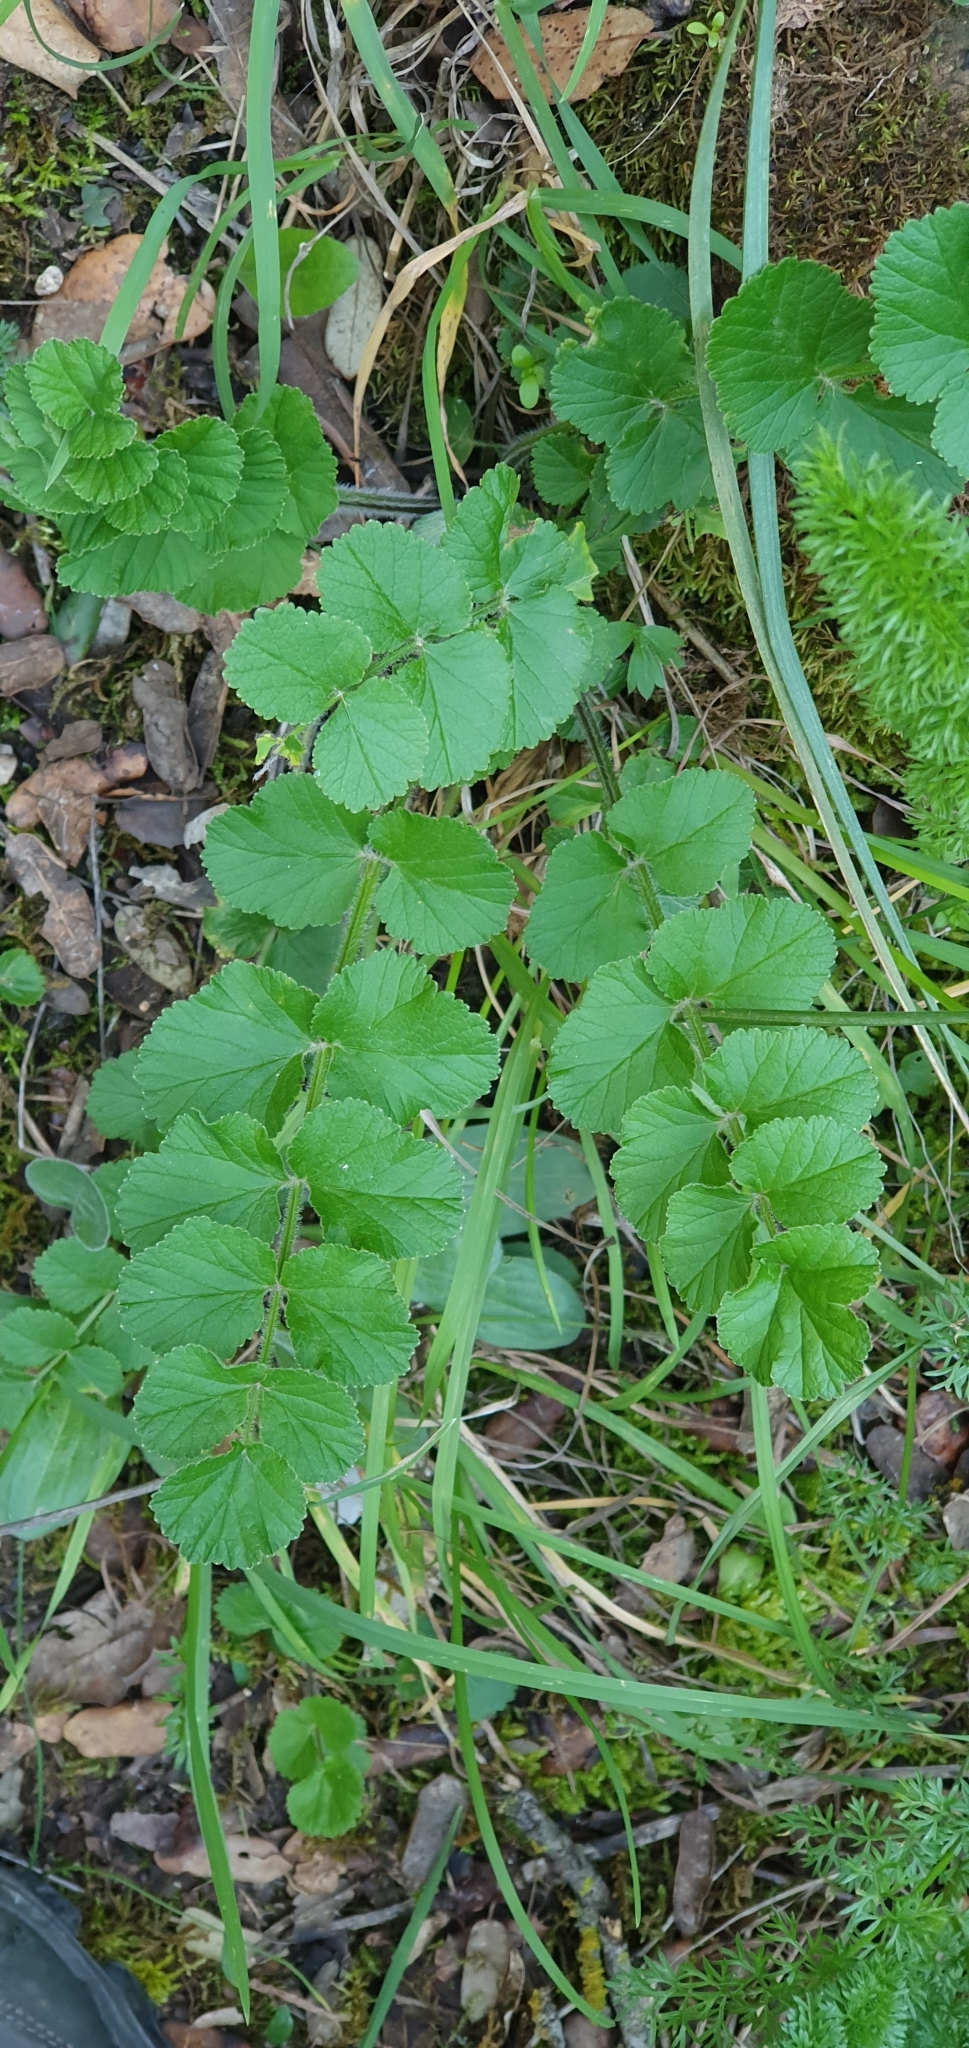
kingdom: Plantae
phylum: Tracheophyta
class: Magnoliopsida
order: Apiales
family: Apiaceae
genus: Pimpinella
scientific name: Pimpinella lutea
